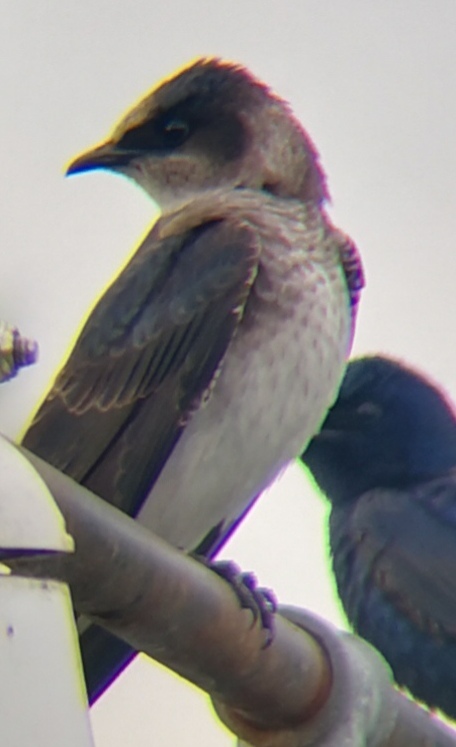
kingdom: Animalia
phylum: Chordata
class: Aves
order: Passeriformes
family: Hirundinidae
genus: Progne
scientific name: Progne subis
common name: Purple martin
